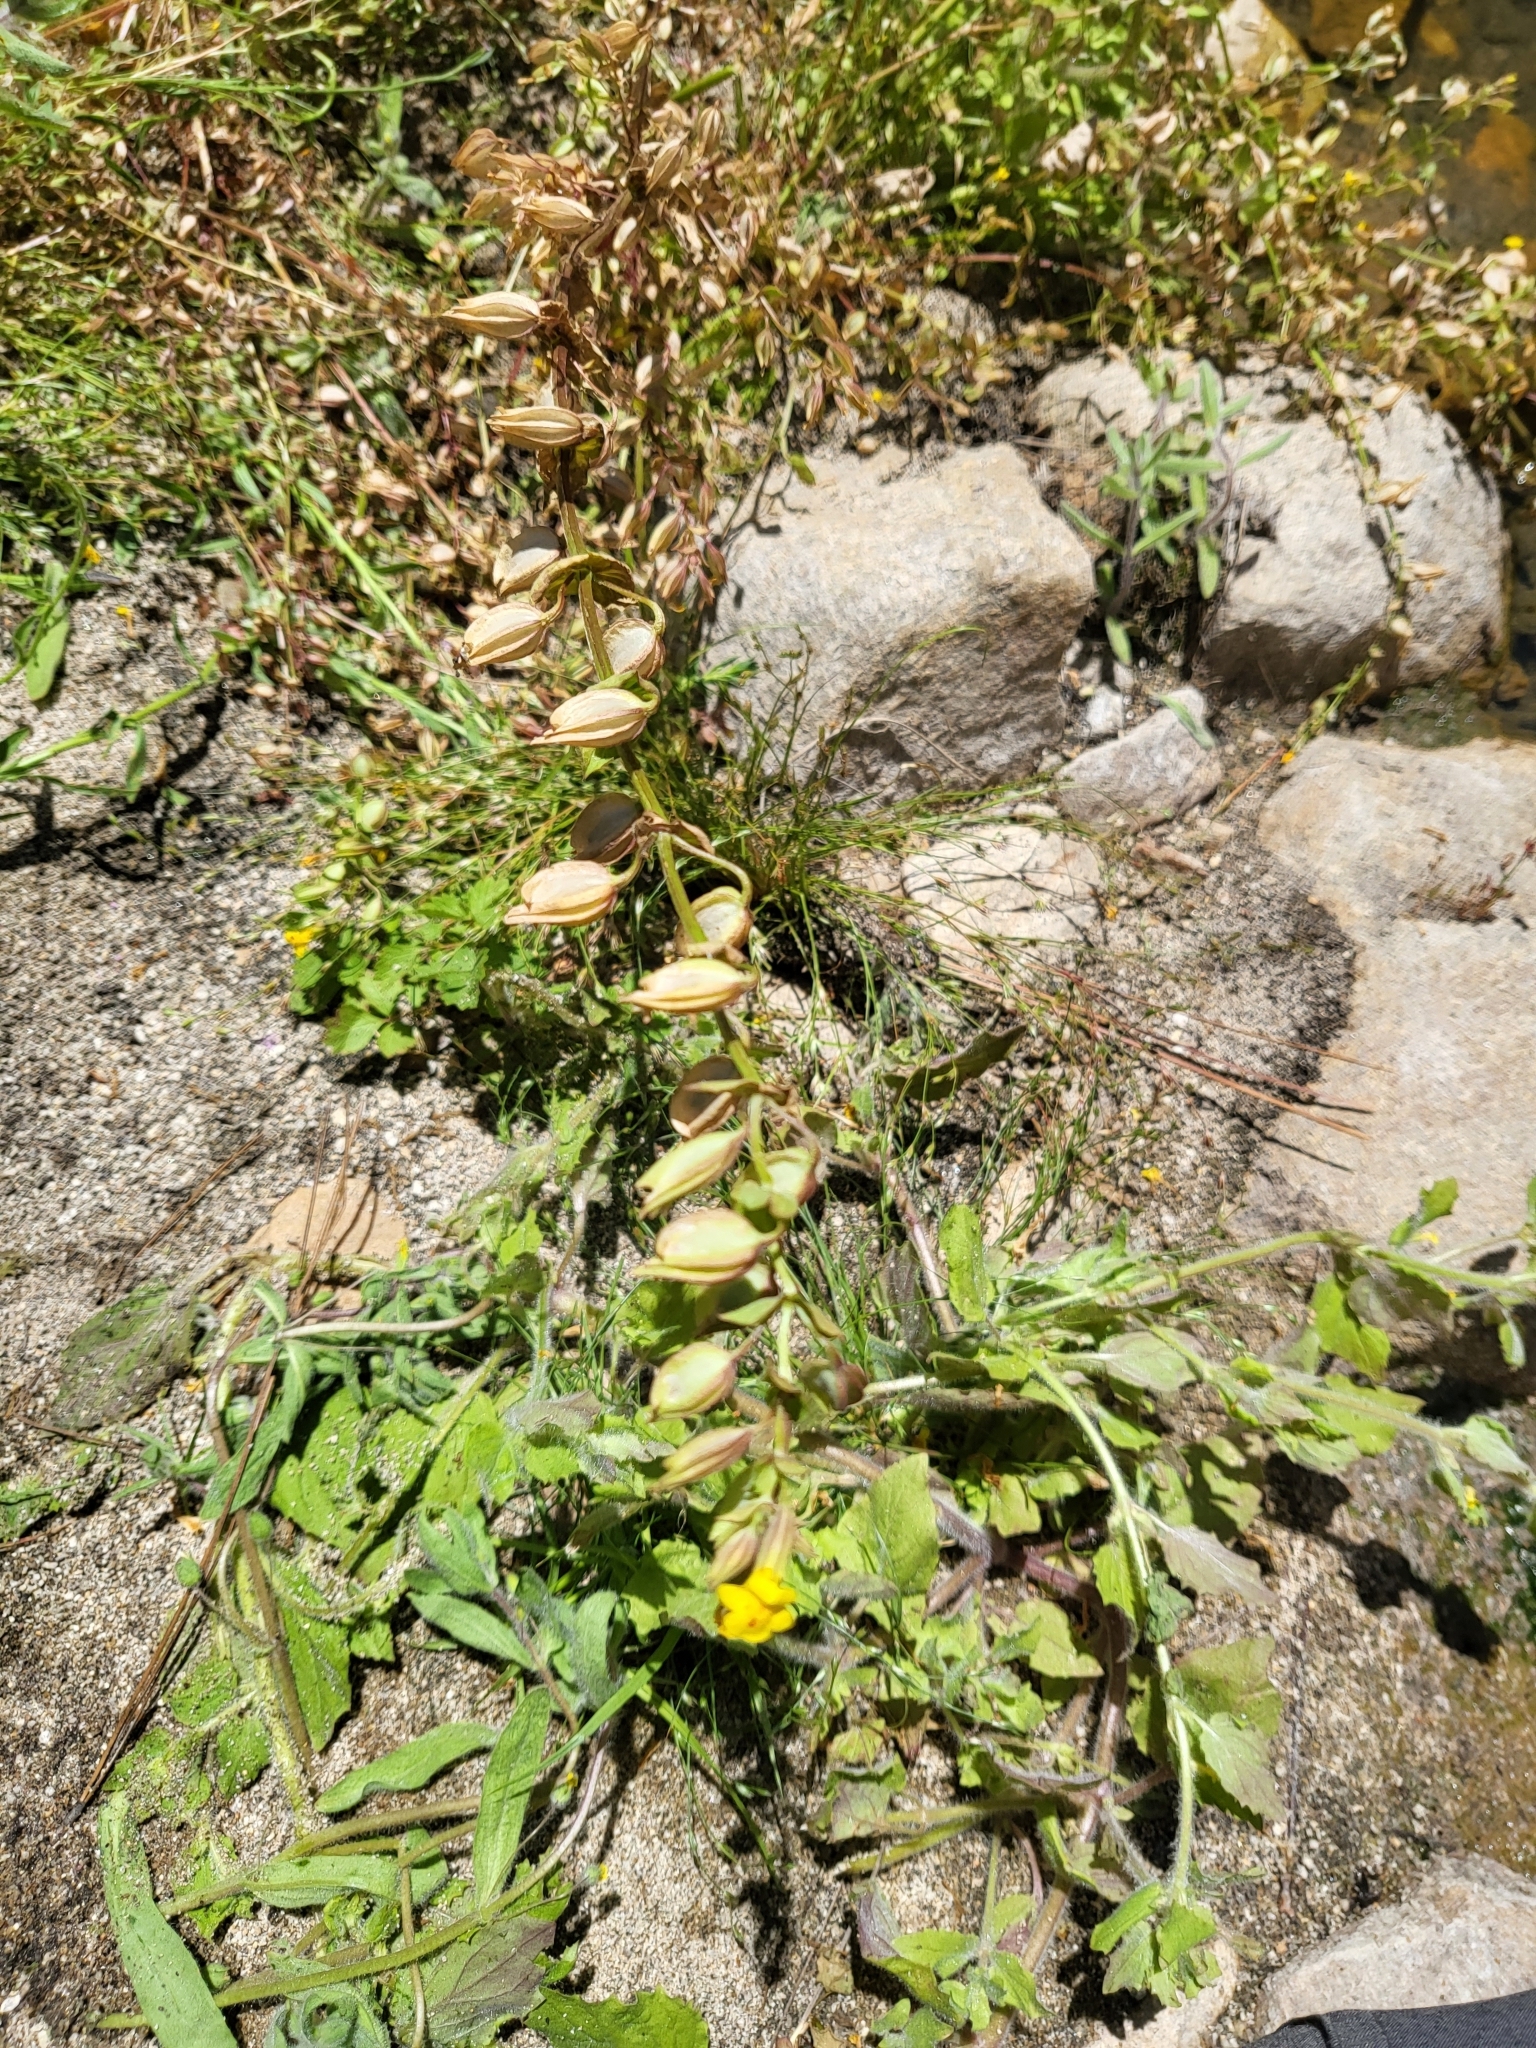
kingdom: Plantae
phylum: Tracheophyta
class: Magnoliopsida
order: Lamiales
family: Phrymaceae
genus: Erythranthe
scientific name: Erythranthe nasuta
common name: Sooke monkeyflower
